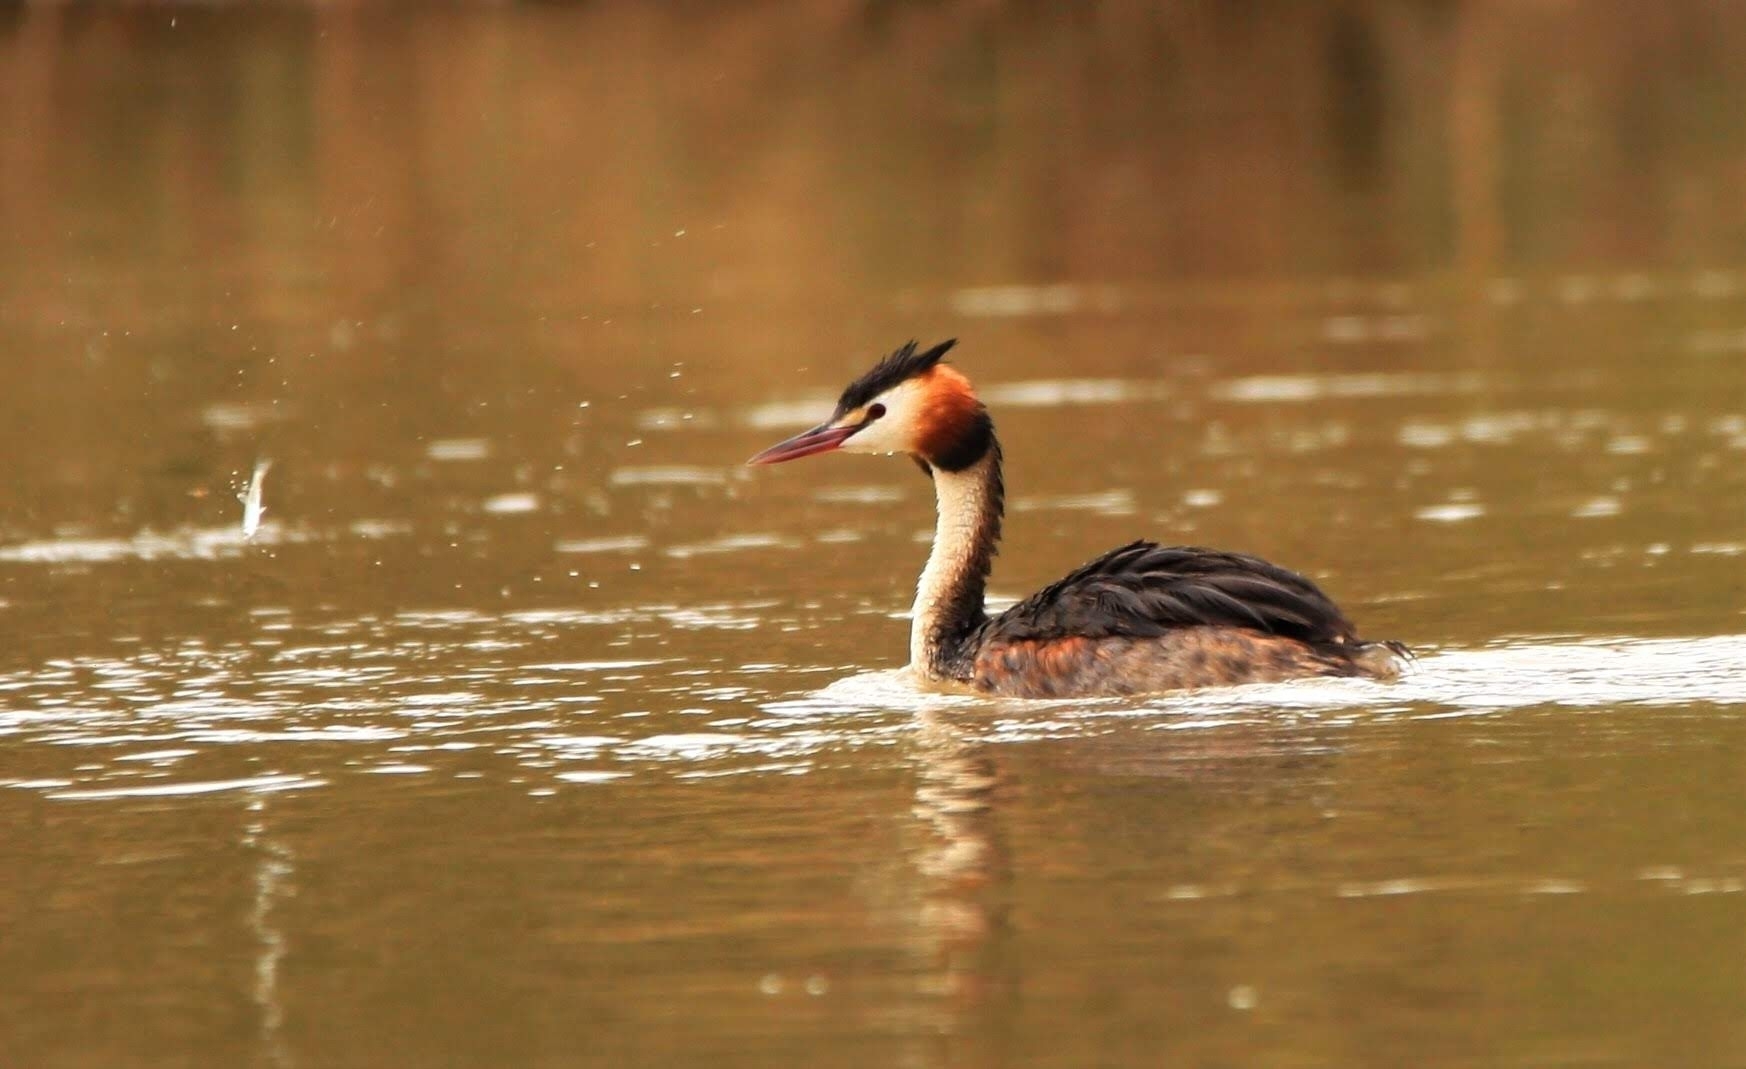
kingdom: Animalia
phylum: Chordata
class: Aves
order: Podicipediformes
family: Podicipedidae
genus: Podiceps
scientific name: Podiceps cristatus
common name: Great crested grebe
